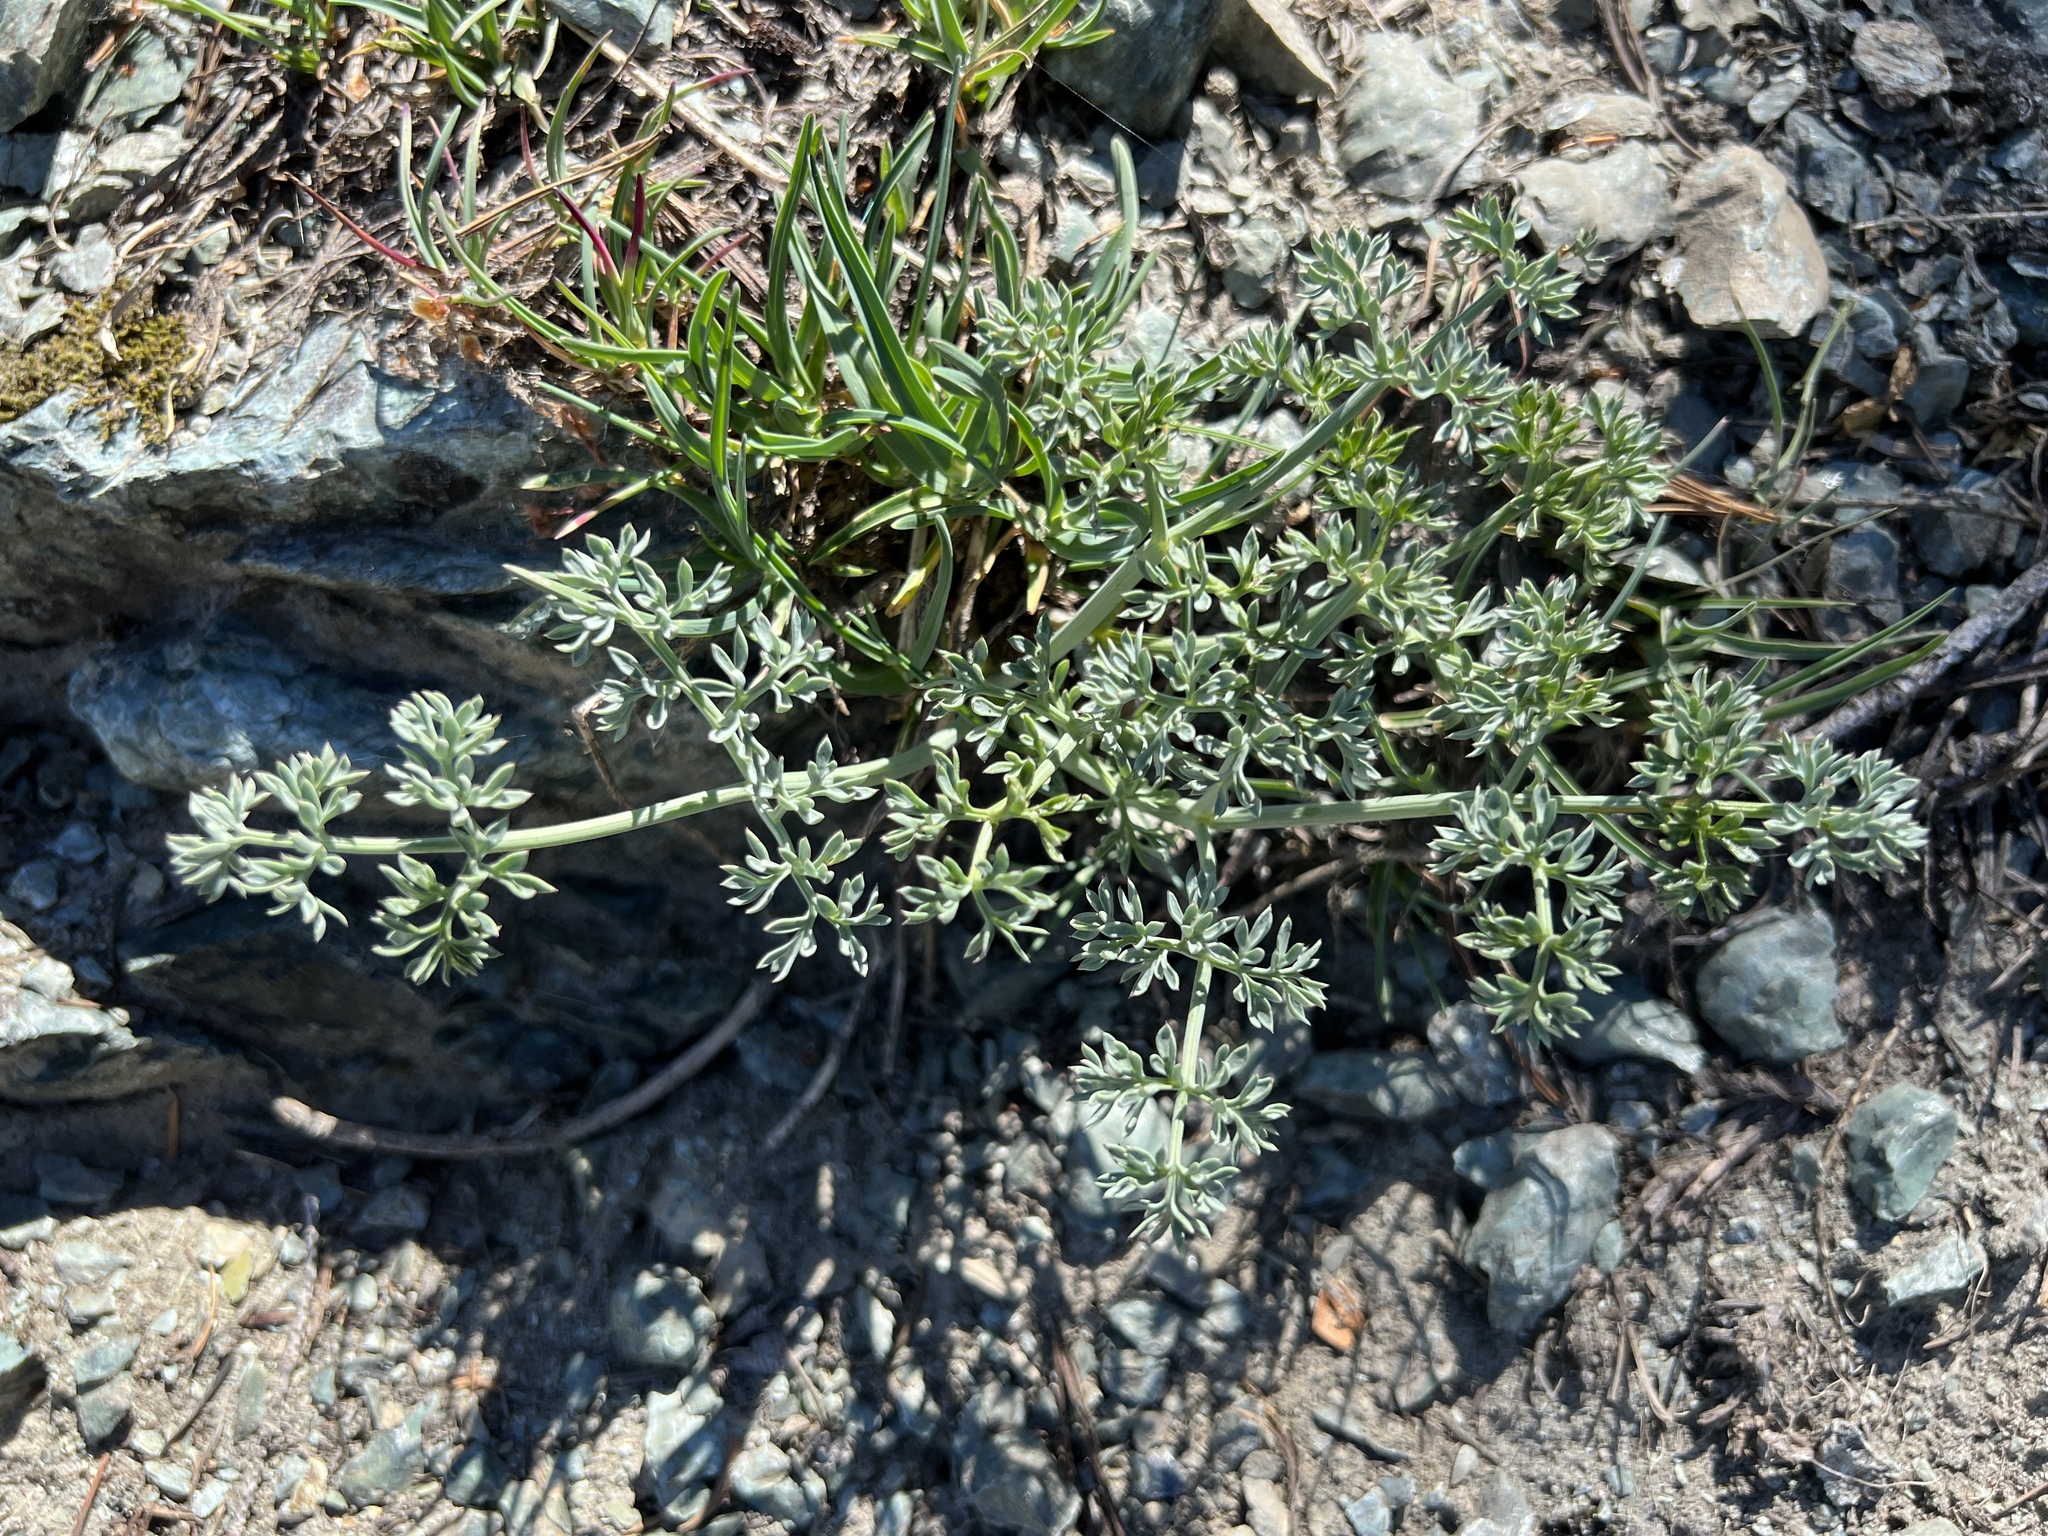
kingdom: Plantae
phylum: Tracheophyta
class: Magnoliopsida
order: Apiales
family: Apiaceae
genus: Lomatium
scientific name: Lomatium cuspidatum
